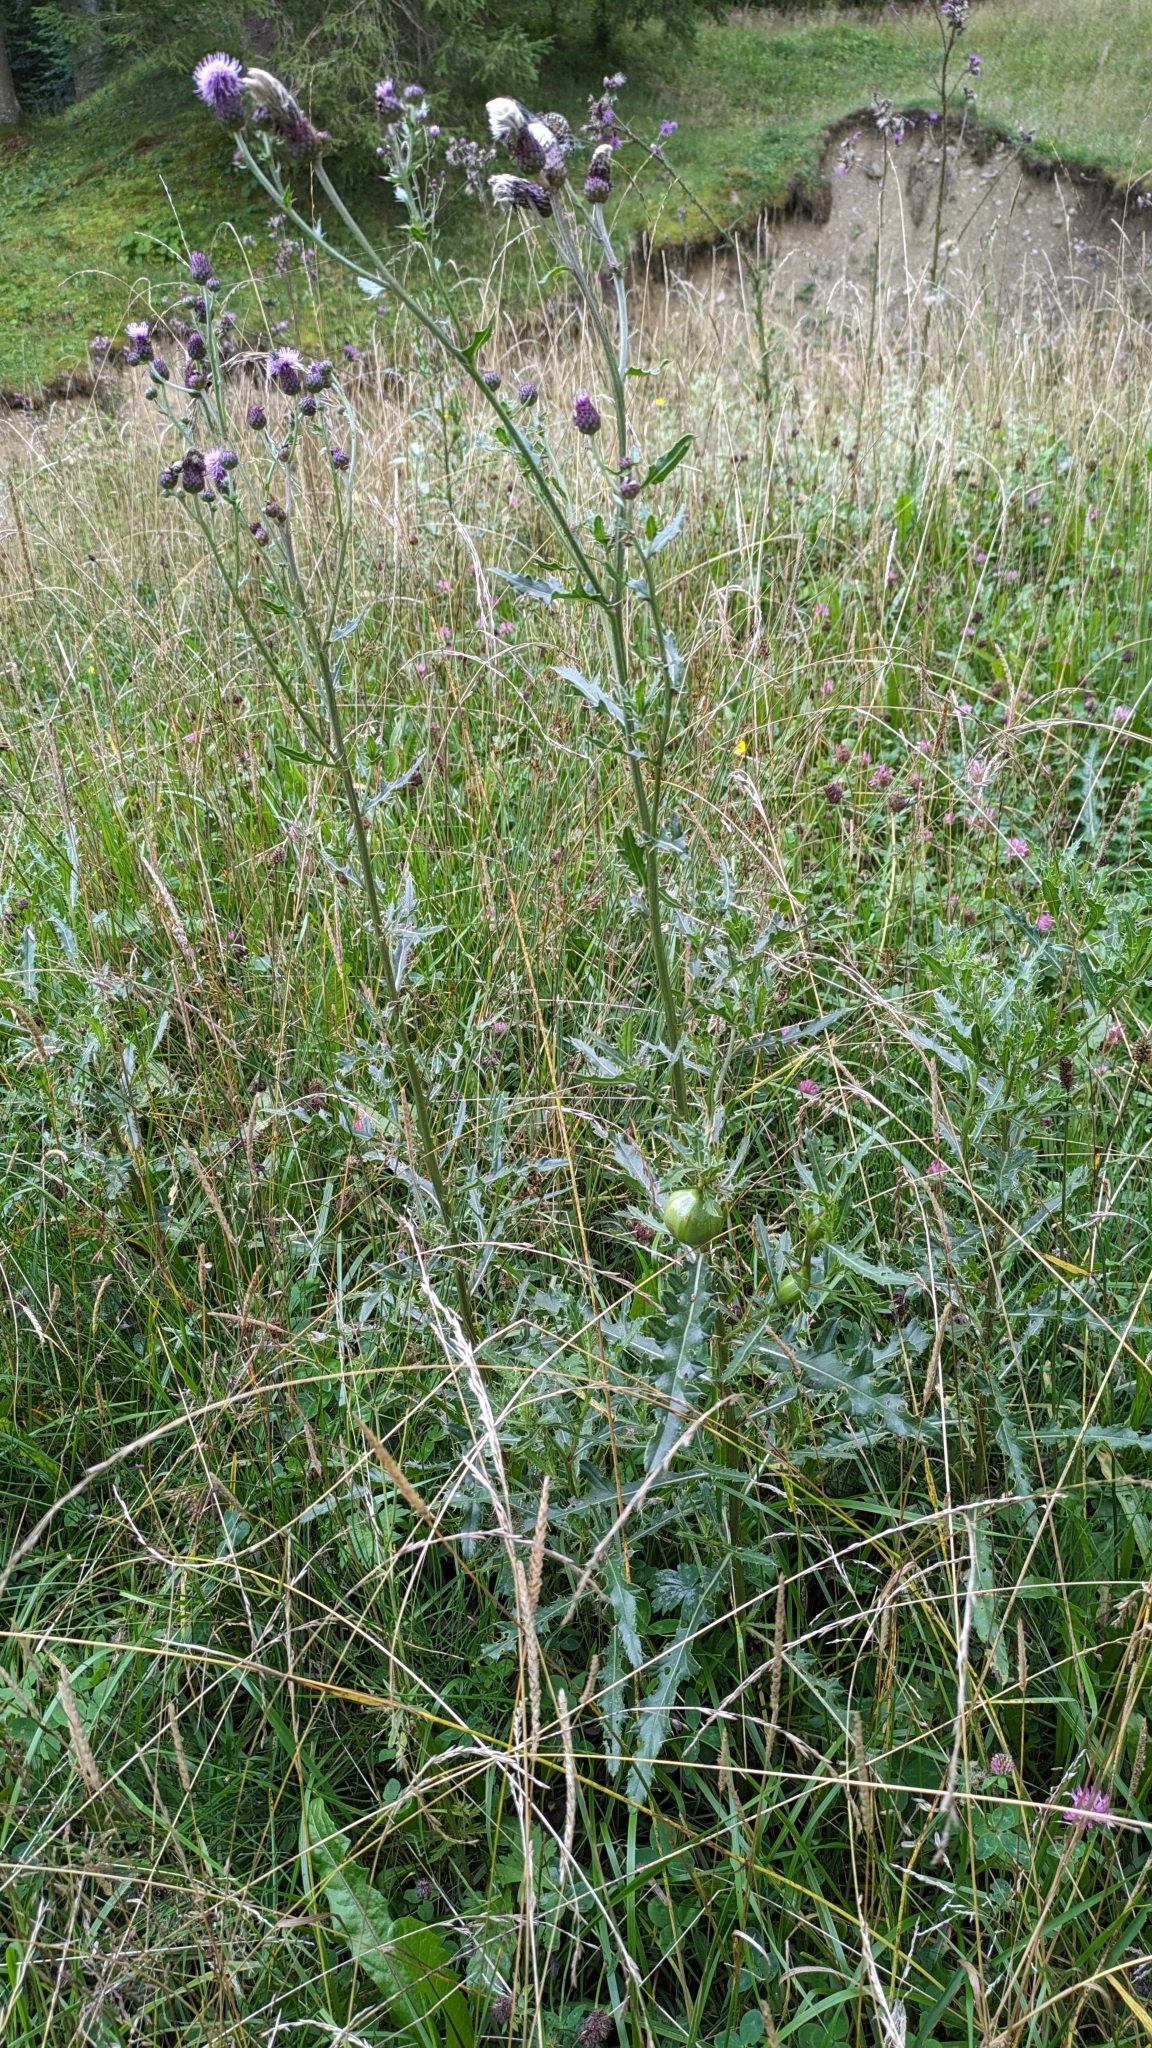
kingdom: Animalia
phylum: Arthropoda
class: Insecta
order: Diptera
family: Tephritidae
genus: Urophora
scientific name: Urophora cardui
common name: Fruit fly
